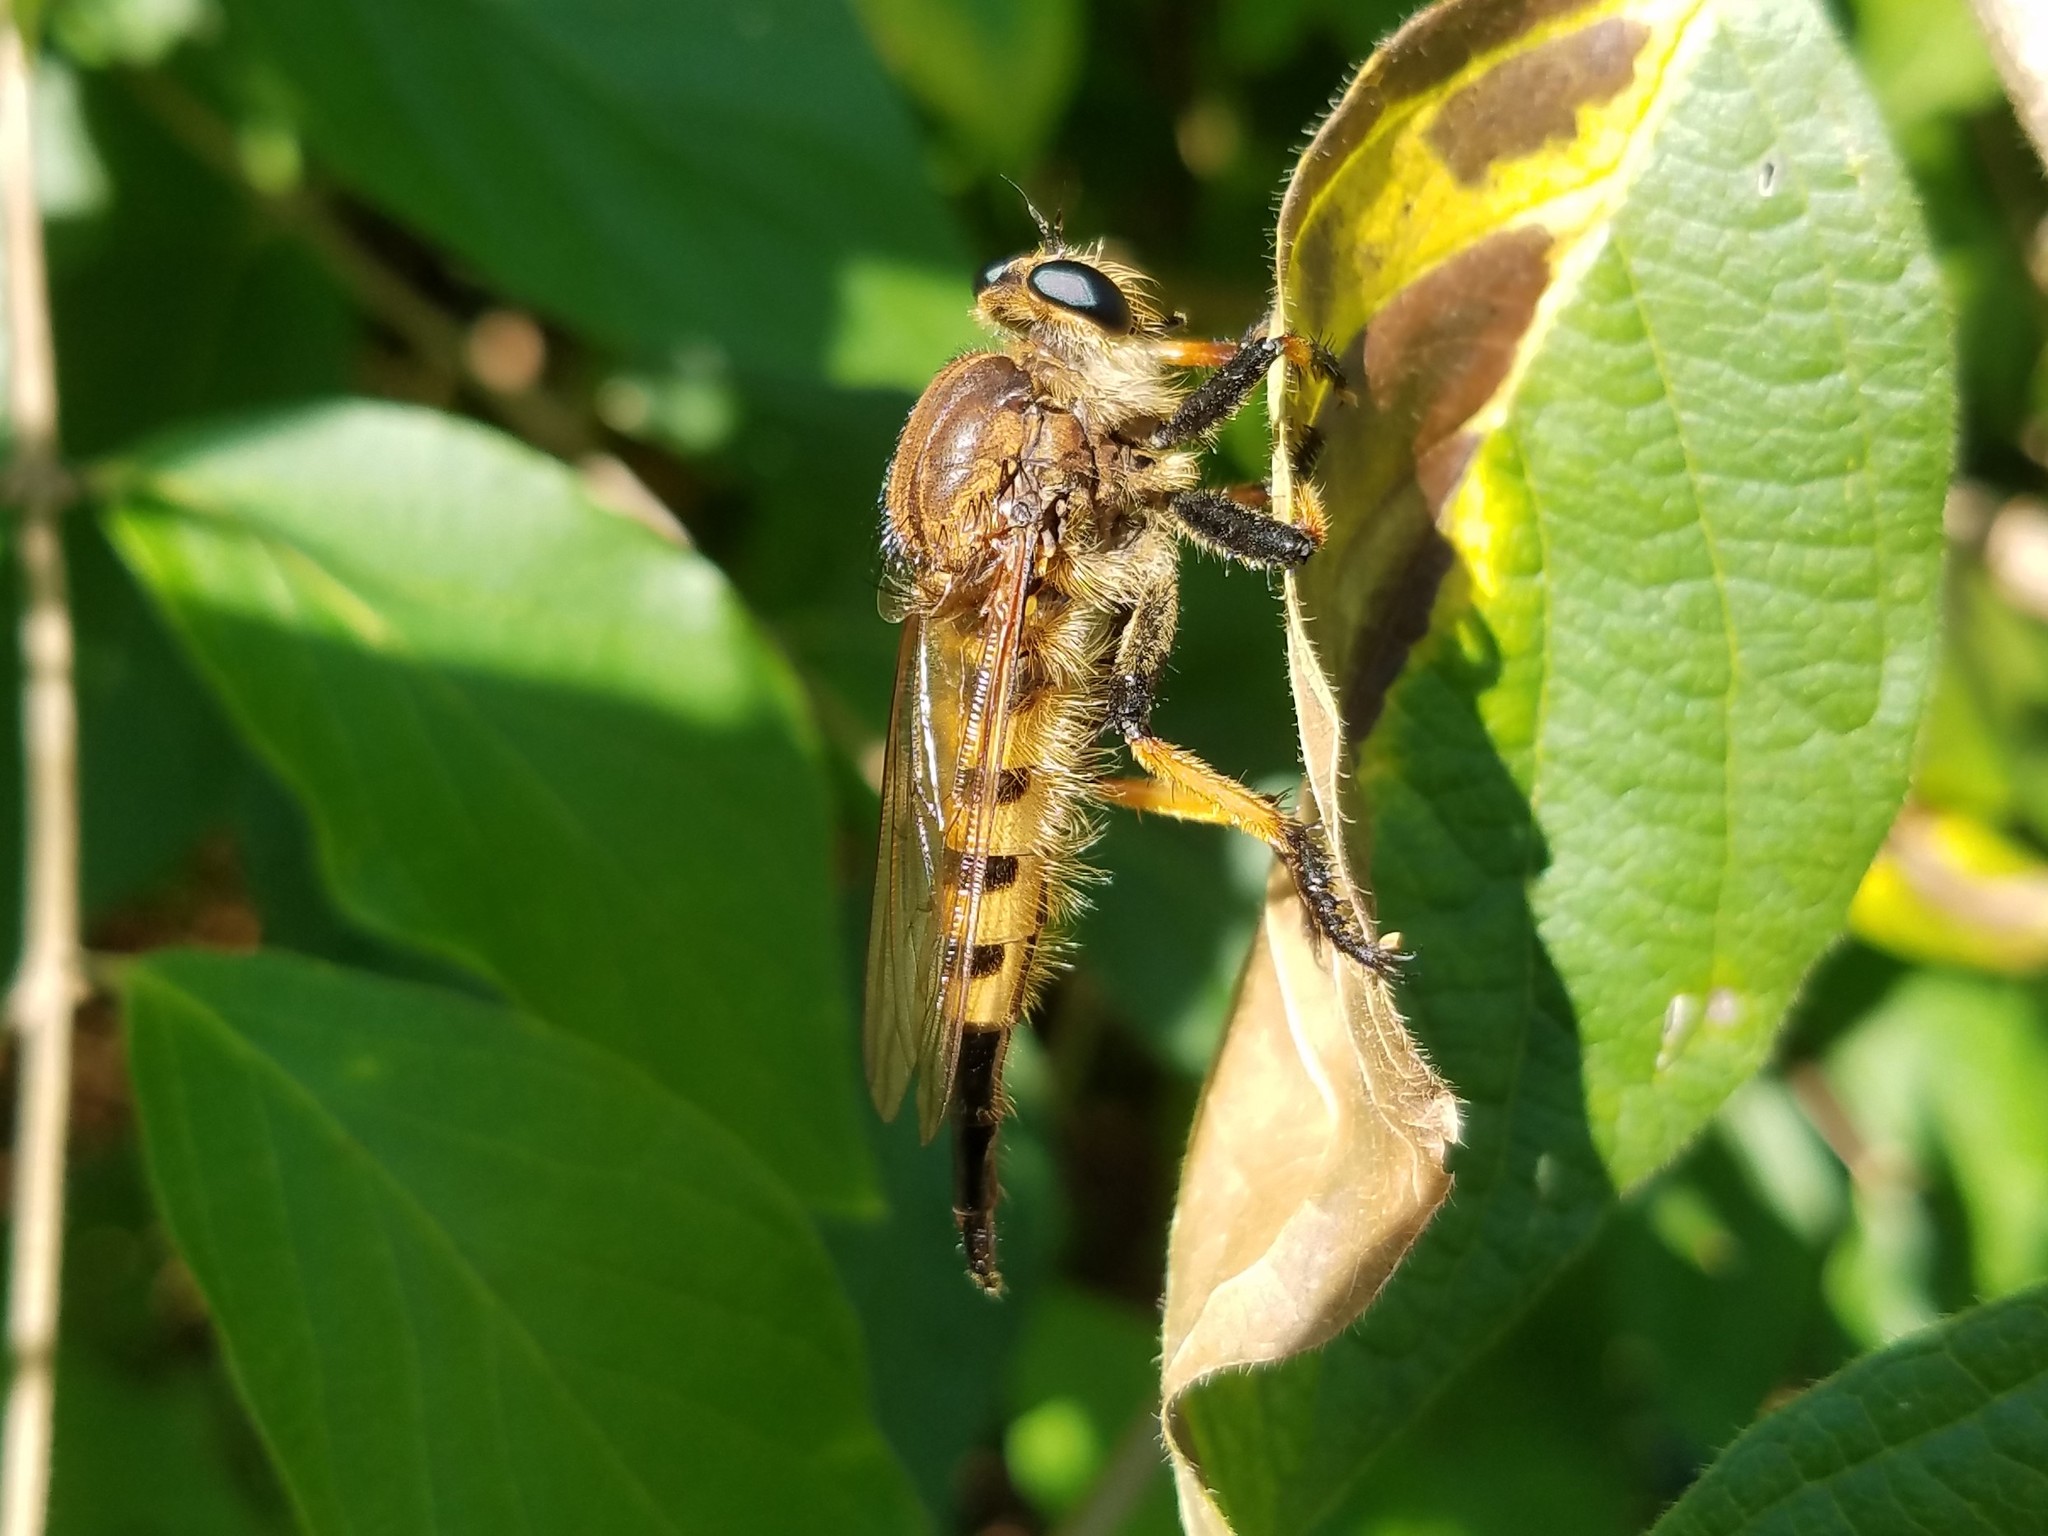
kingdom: Animalia
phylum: Arthropoda
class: Insecta
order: Diptera
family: Asilidae
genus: Promachus
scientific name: Promachus rufipes
